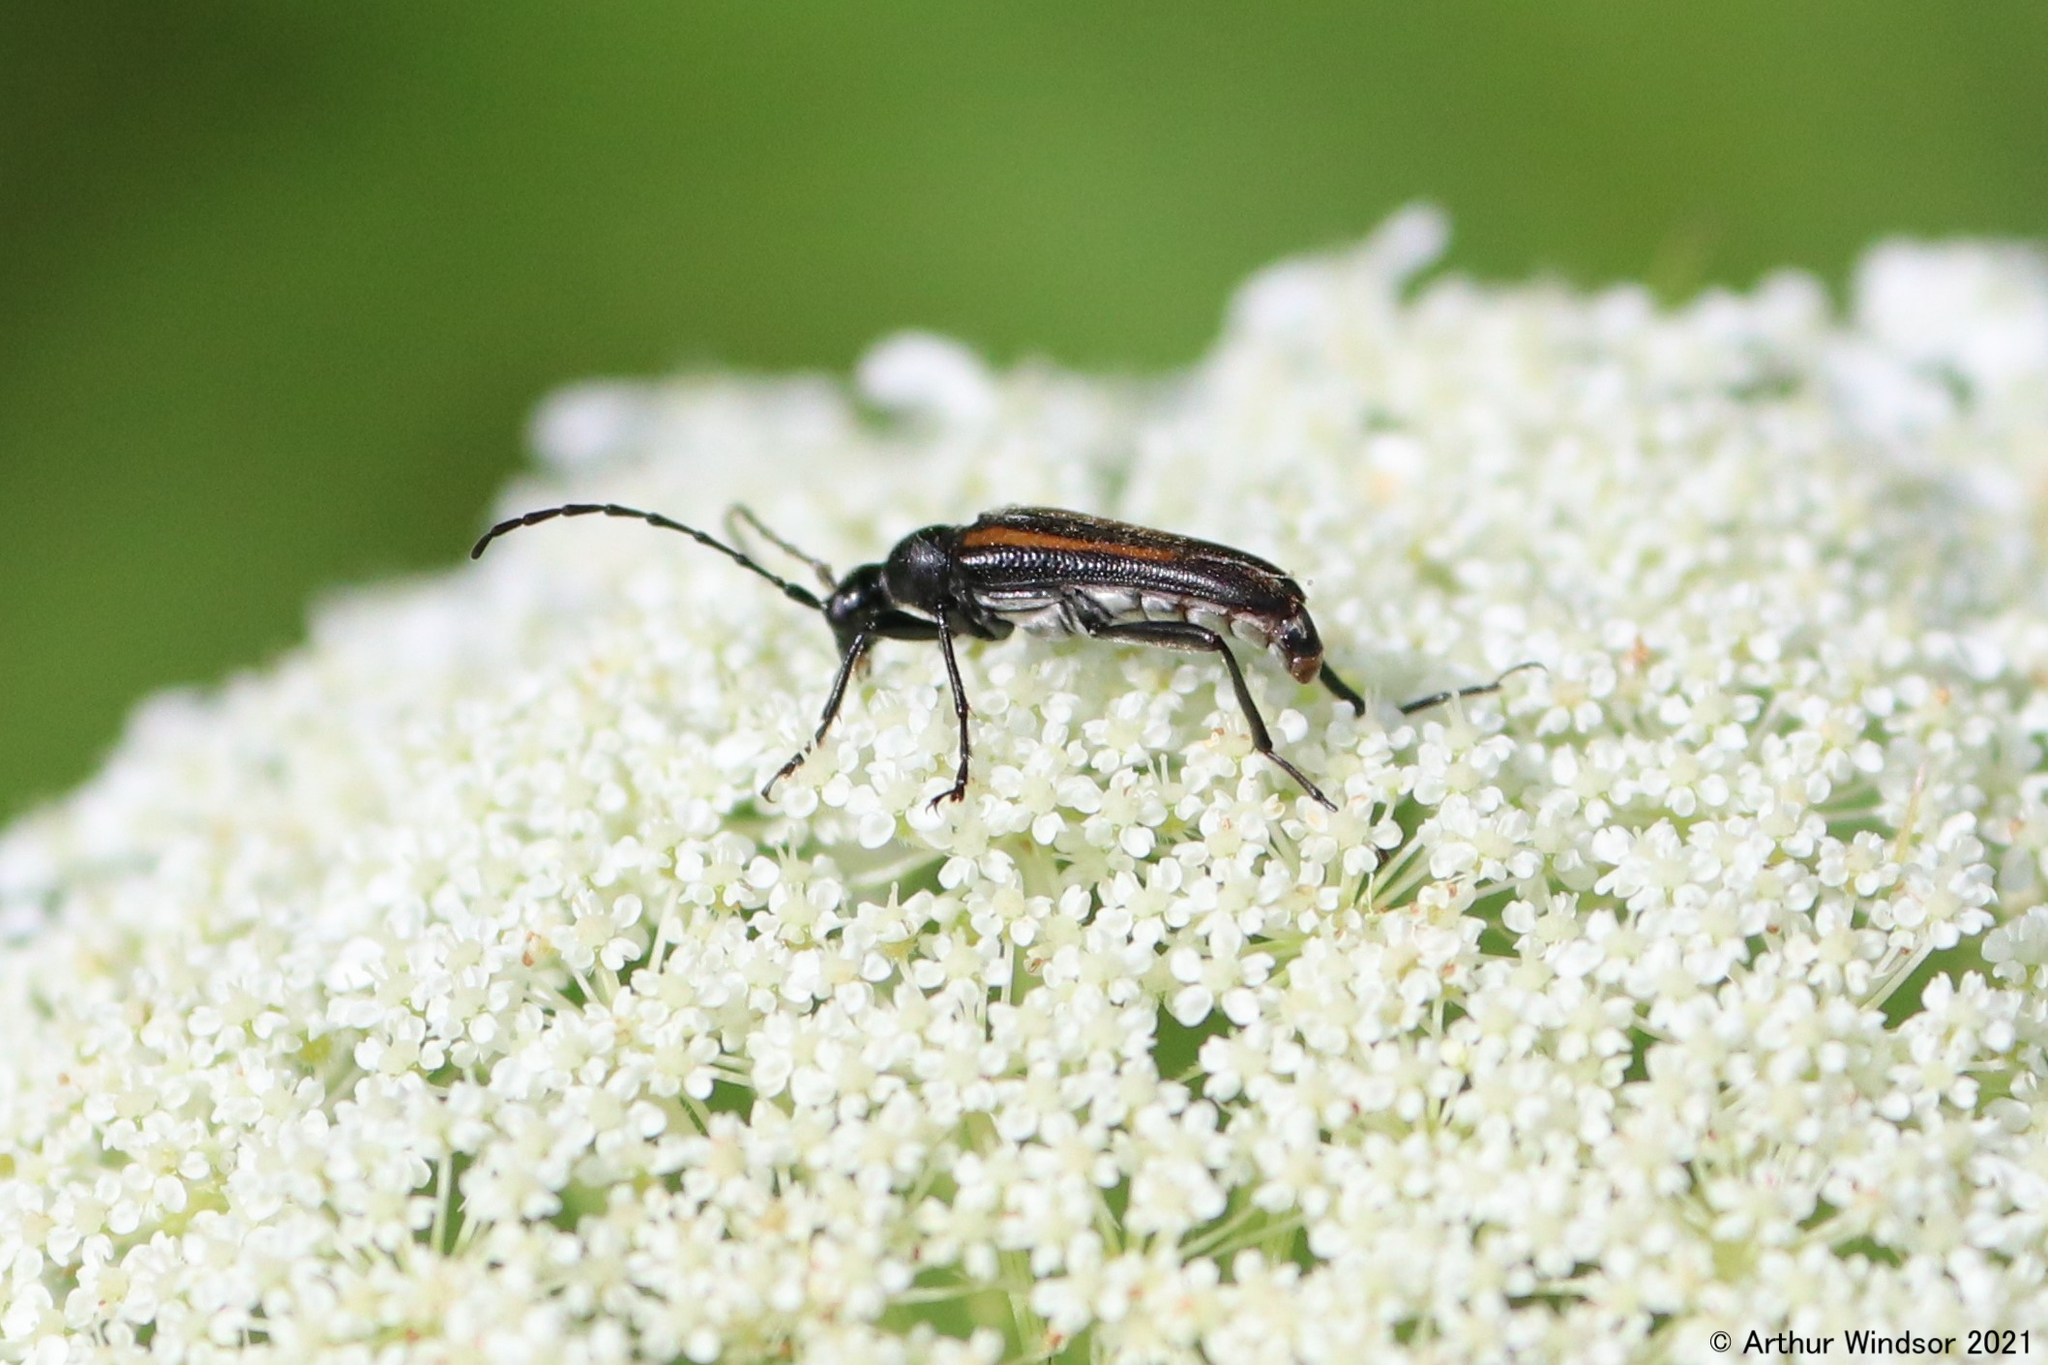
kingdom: Animalia
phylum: Arthropoda
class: Insecta
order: Coleoptera
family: Cerambycidae
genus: Strangalepta
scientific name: Strangalepta abbreviata
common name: Strangalepta flower longhorn beetle
